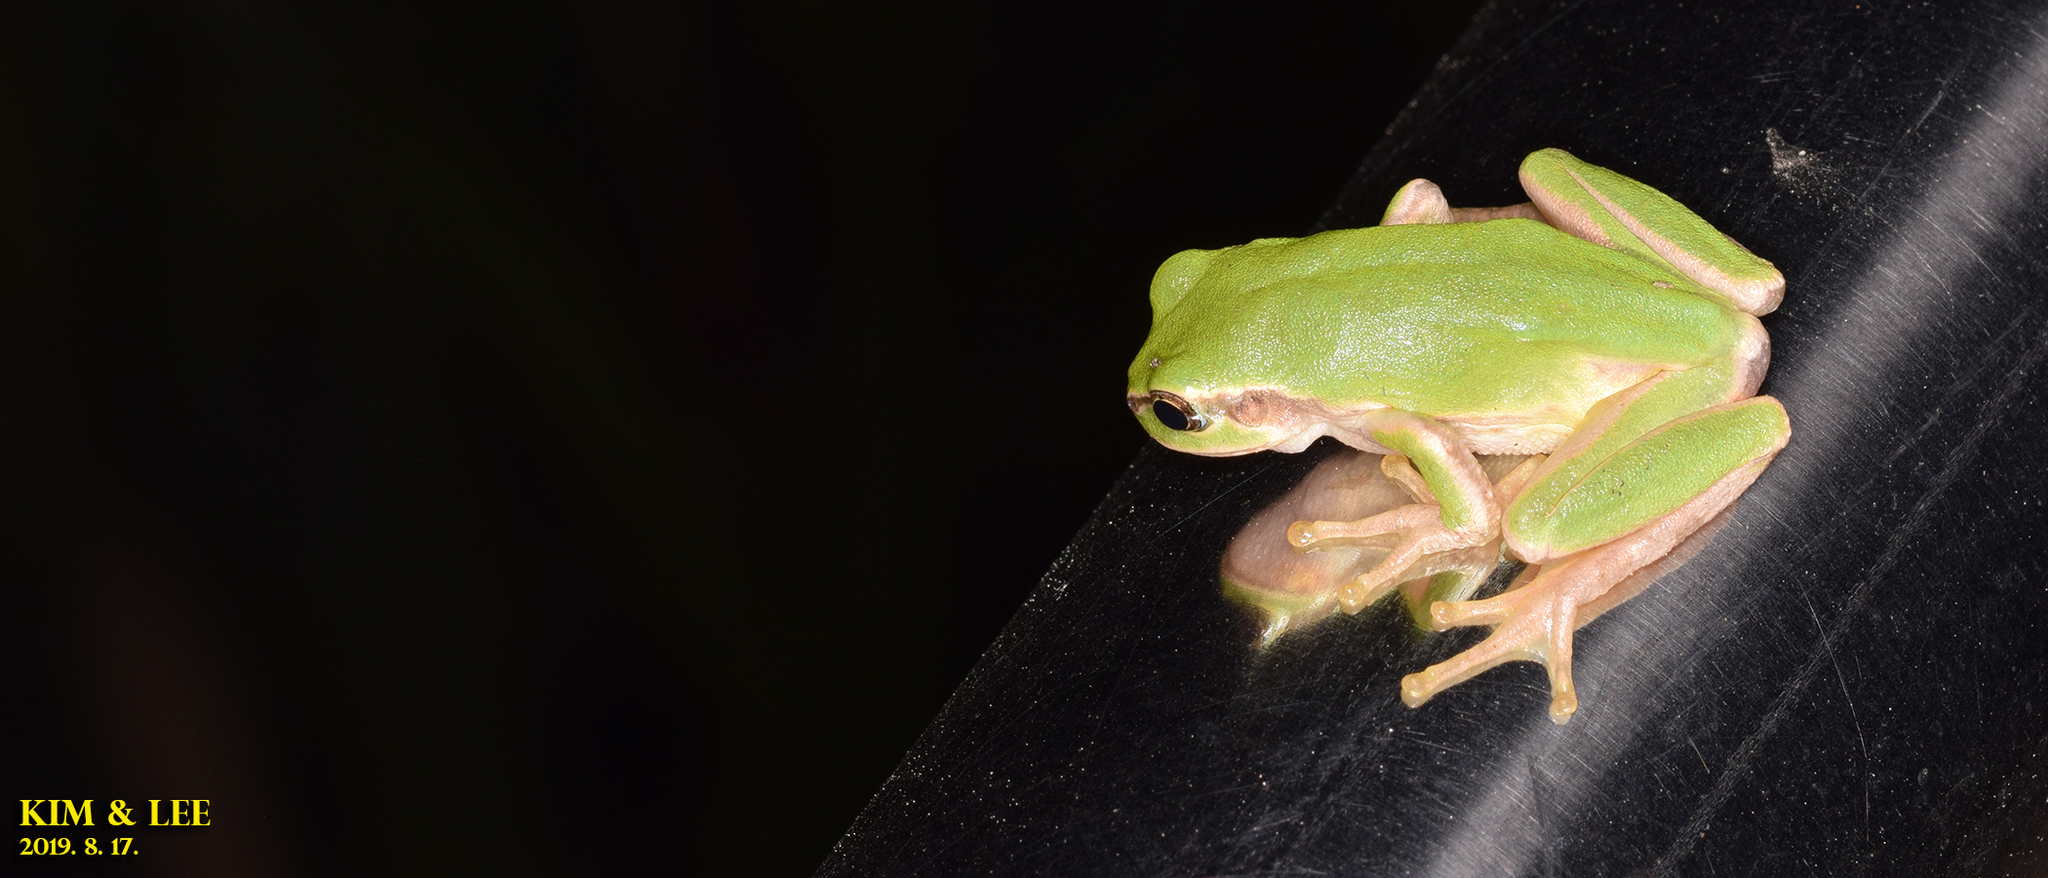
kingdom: Animalia
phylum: Chordata
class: Amphibia
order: Anura
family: Hylidae
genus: Dryophytes
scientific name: Dryophytes japonicus
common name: Japanese treefrog
